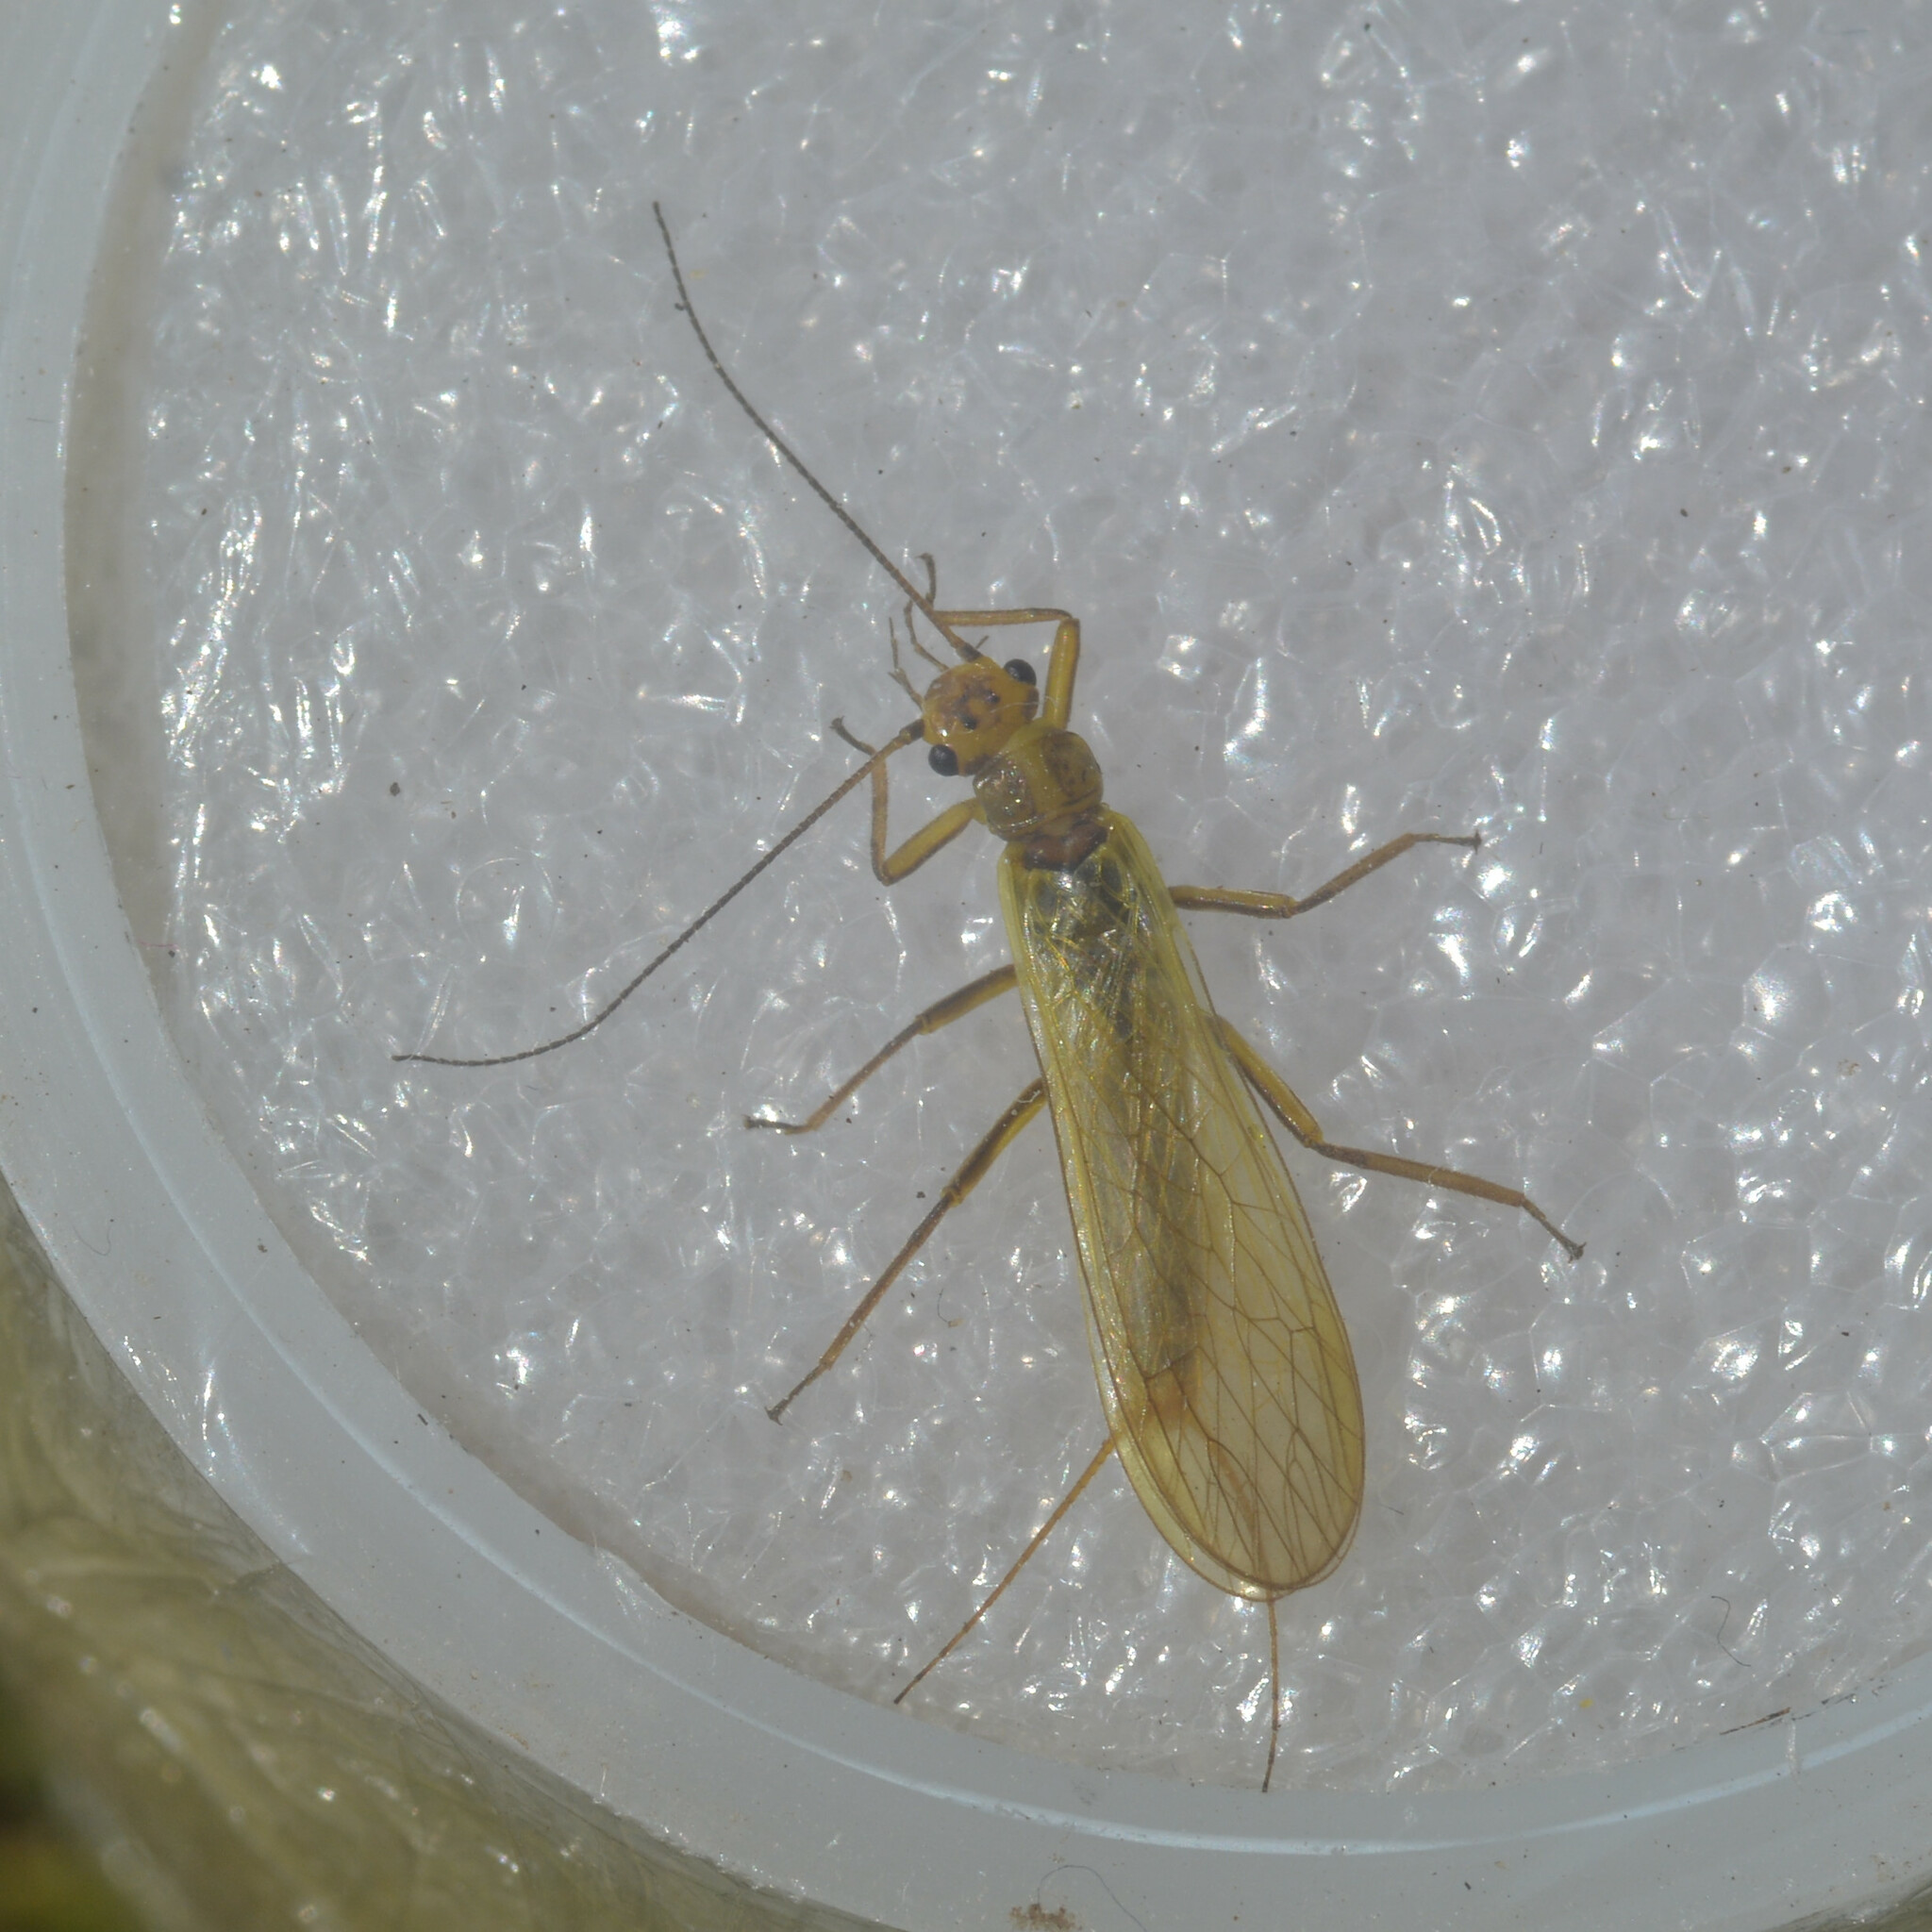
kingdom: Animalia
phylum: Arthropoda
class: Insecta
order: Plecoptera
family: Perlodidae
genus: Isoperla
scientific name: Isoperla grammatica
